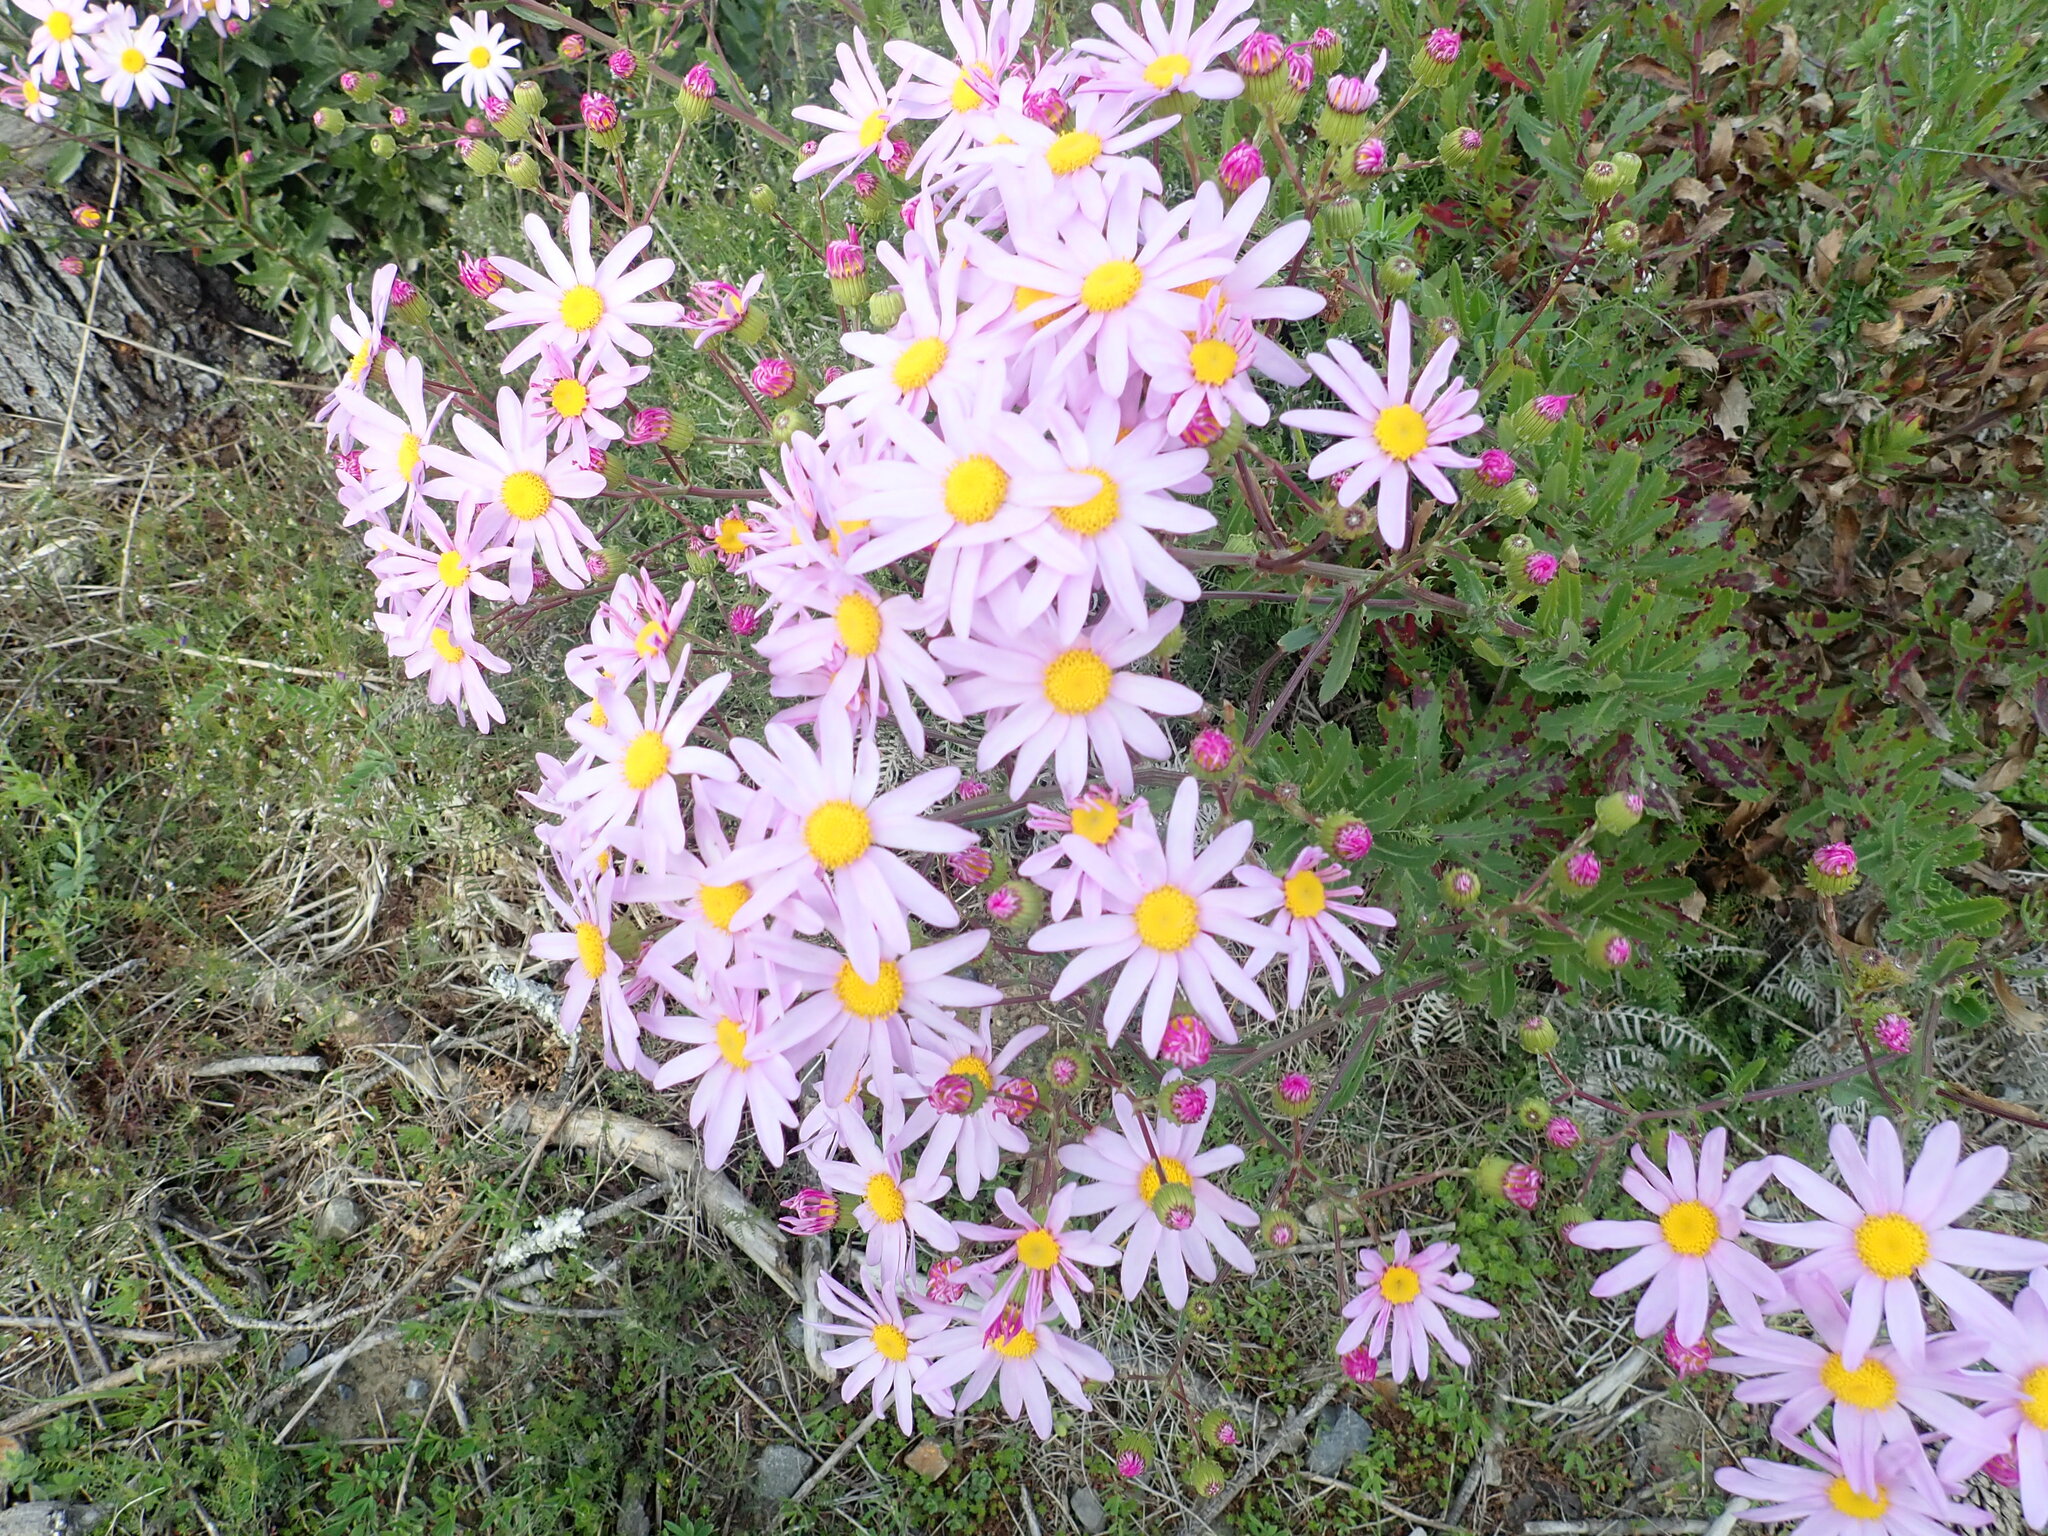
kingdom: Plantae
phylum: Tracheophyta
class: Magnoliopsida
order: Asterales
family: Asteraceae
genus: Senecio
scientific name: Senecio glastifolius
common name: Woad-leaved ragwort
